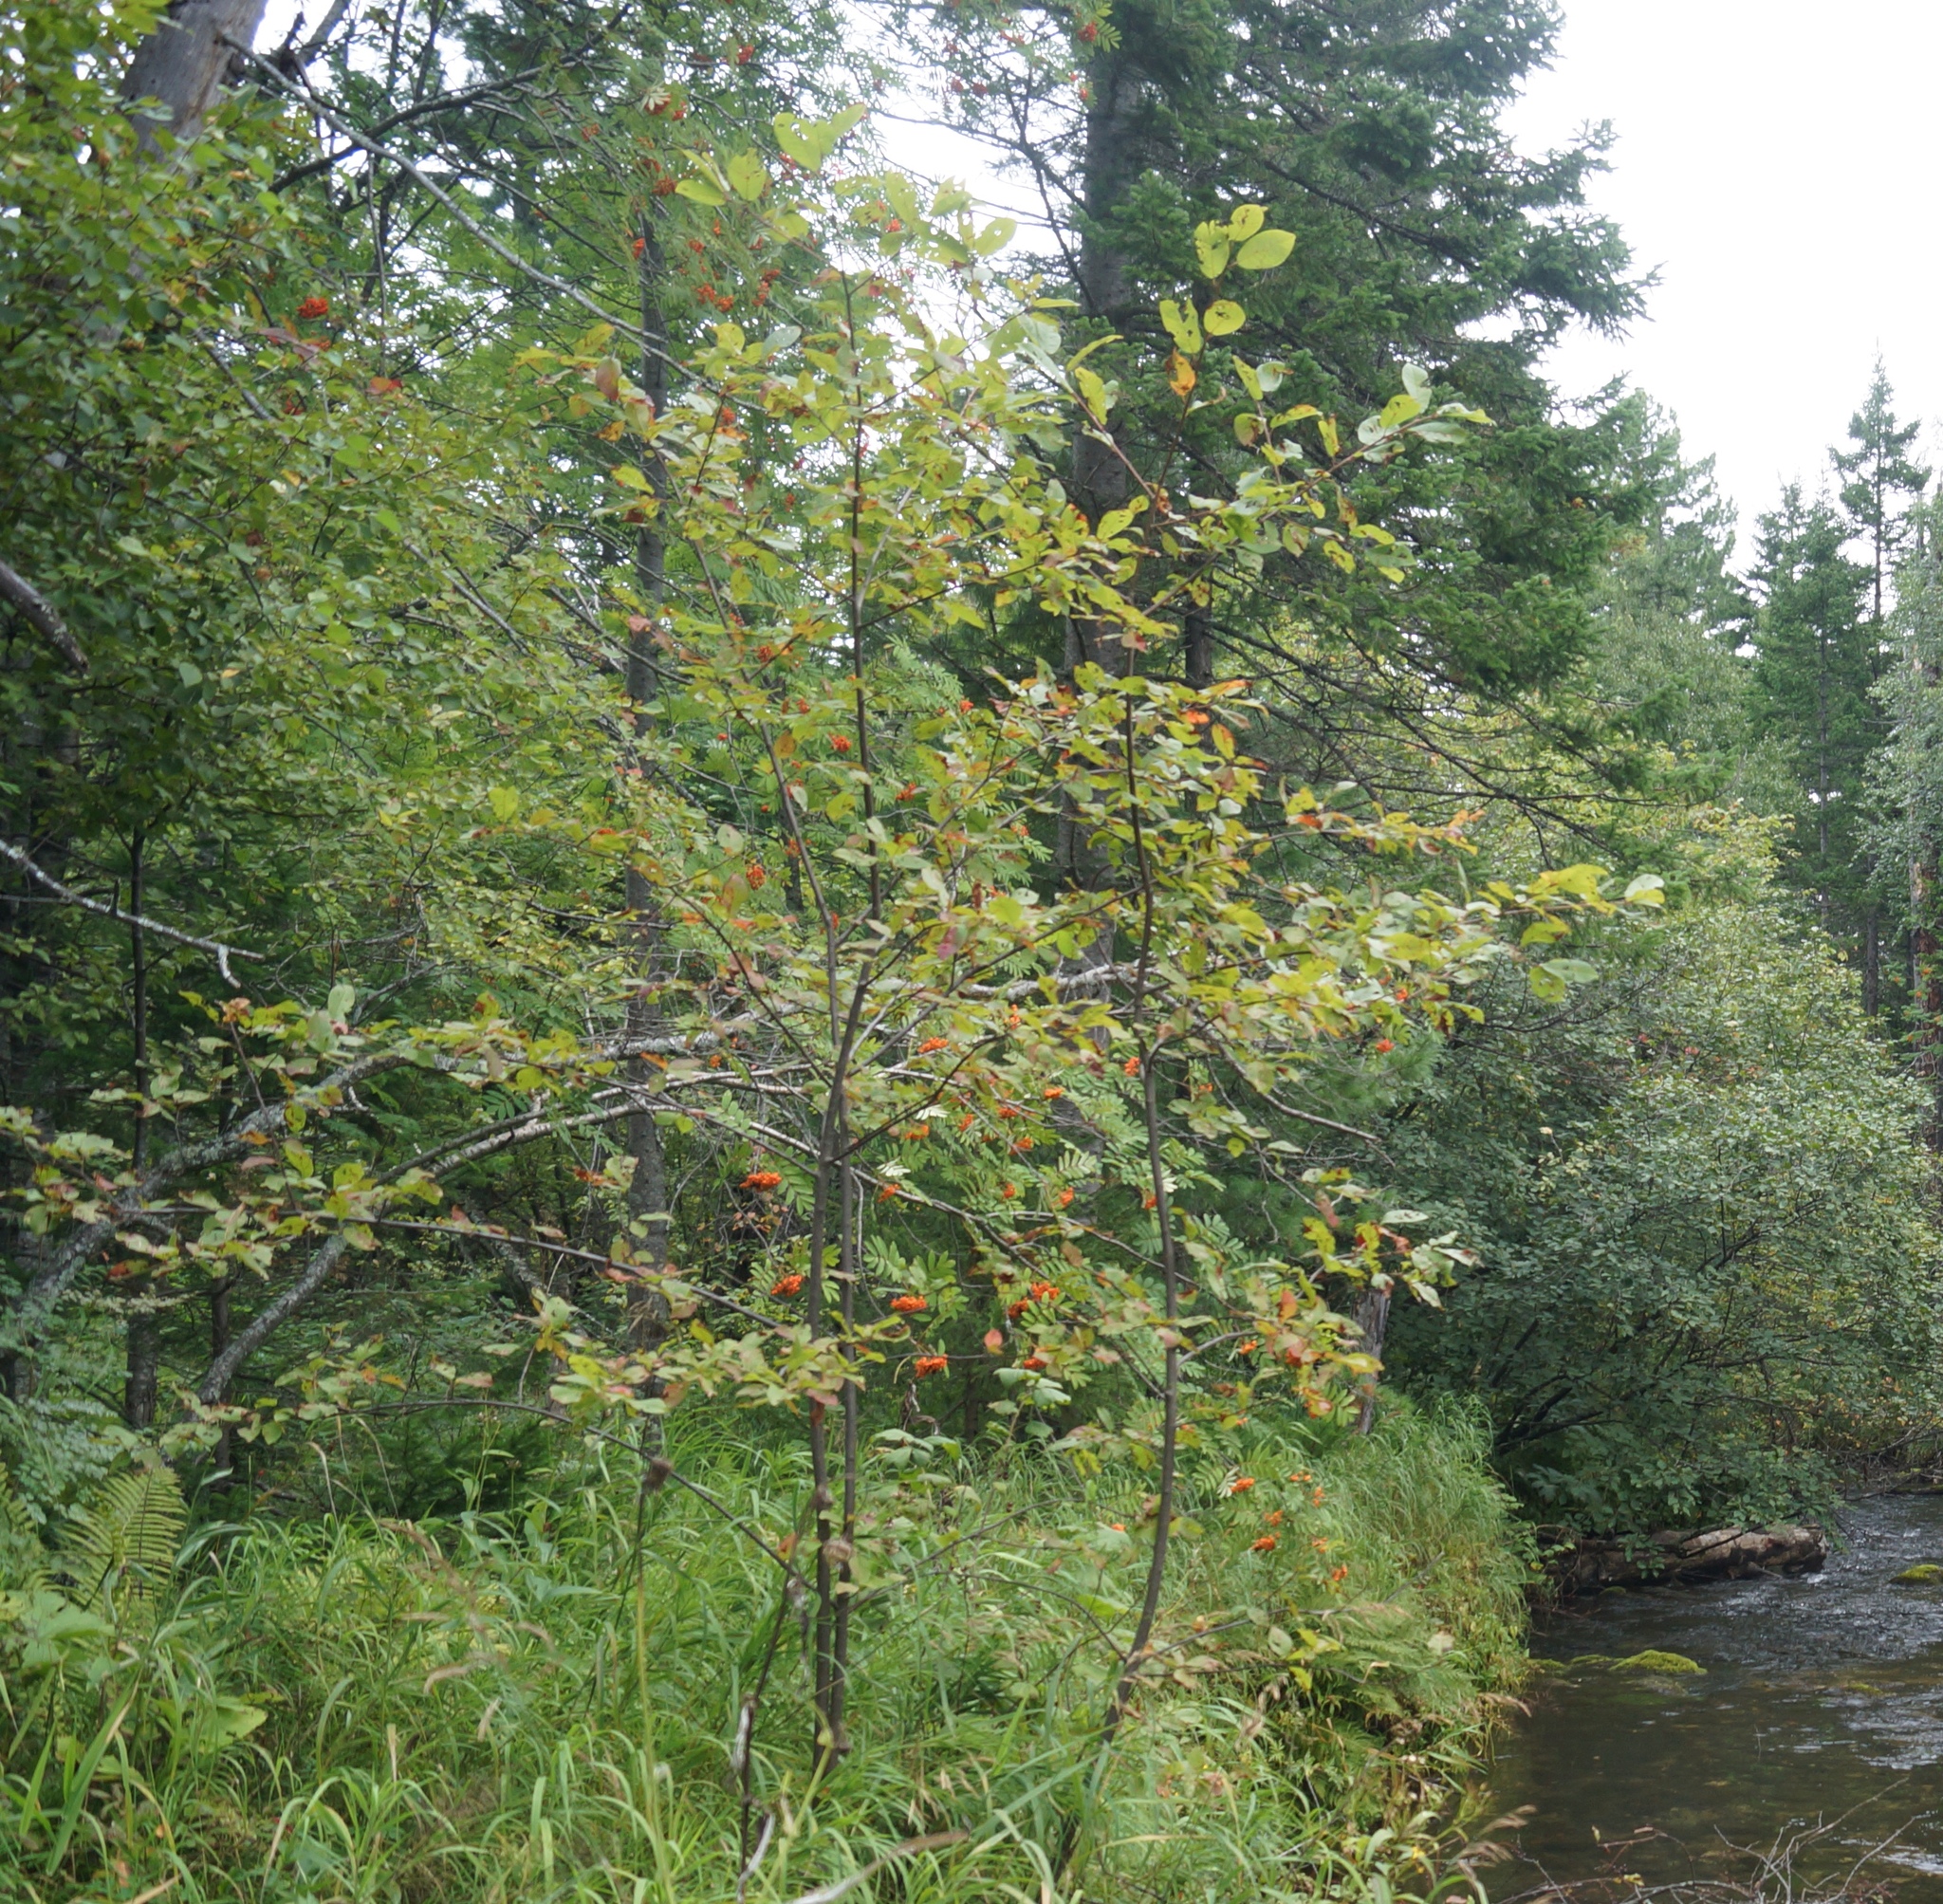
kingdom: Plantae
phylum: Tracheophyta
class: Magnoliopsida
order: Rosales
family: Rosaceae
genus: Sorbus
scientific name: Sorbus aucuparia
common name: Rowan
